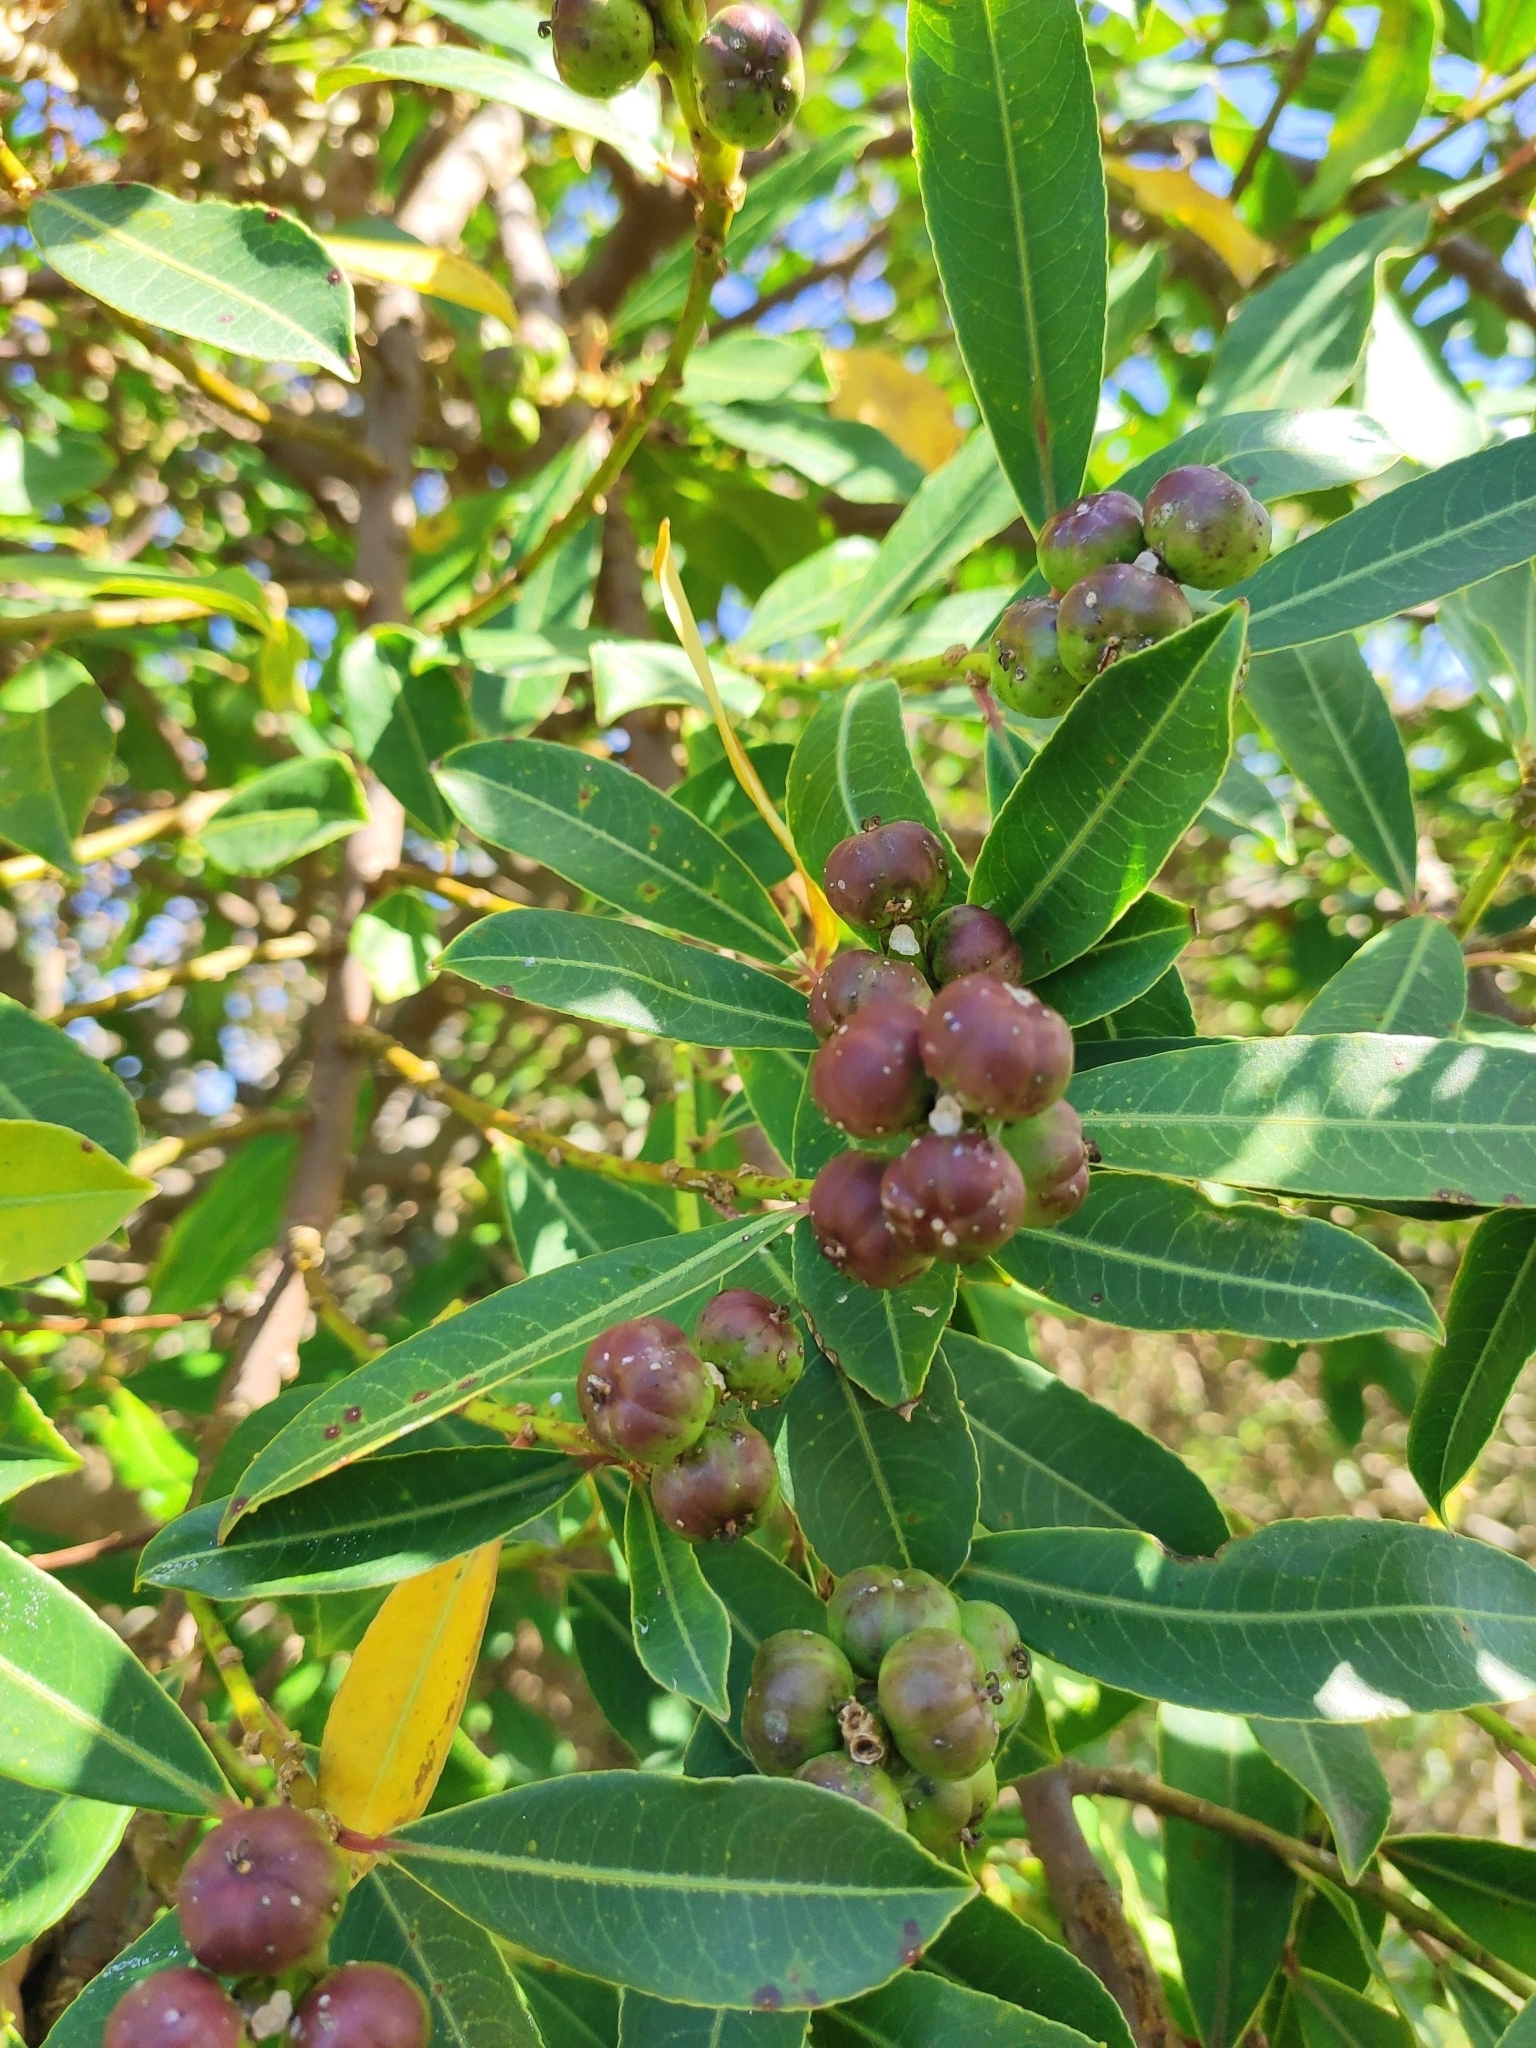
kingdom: Plantae
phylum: Tracheophyta
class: Magnoliopsida
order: Malpighiales
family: Euphorbiaceae
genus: Sapium
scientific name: Sapium glandulosum
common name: Milktree
